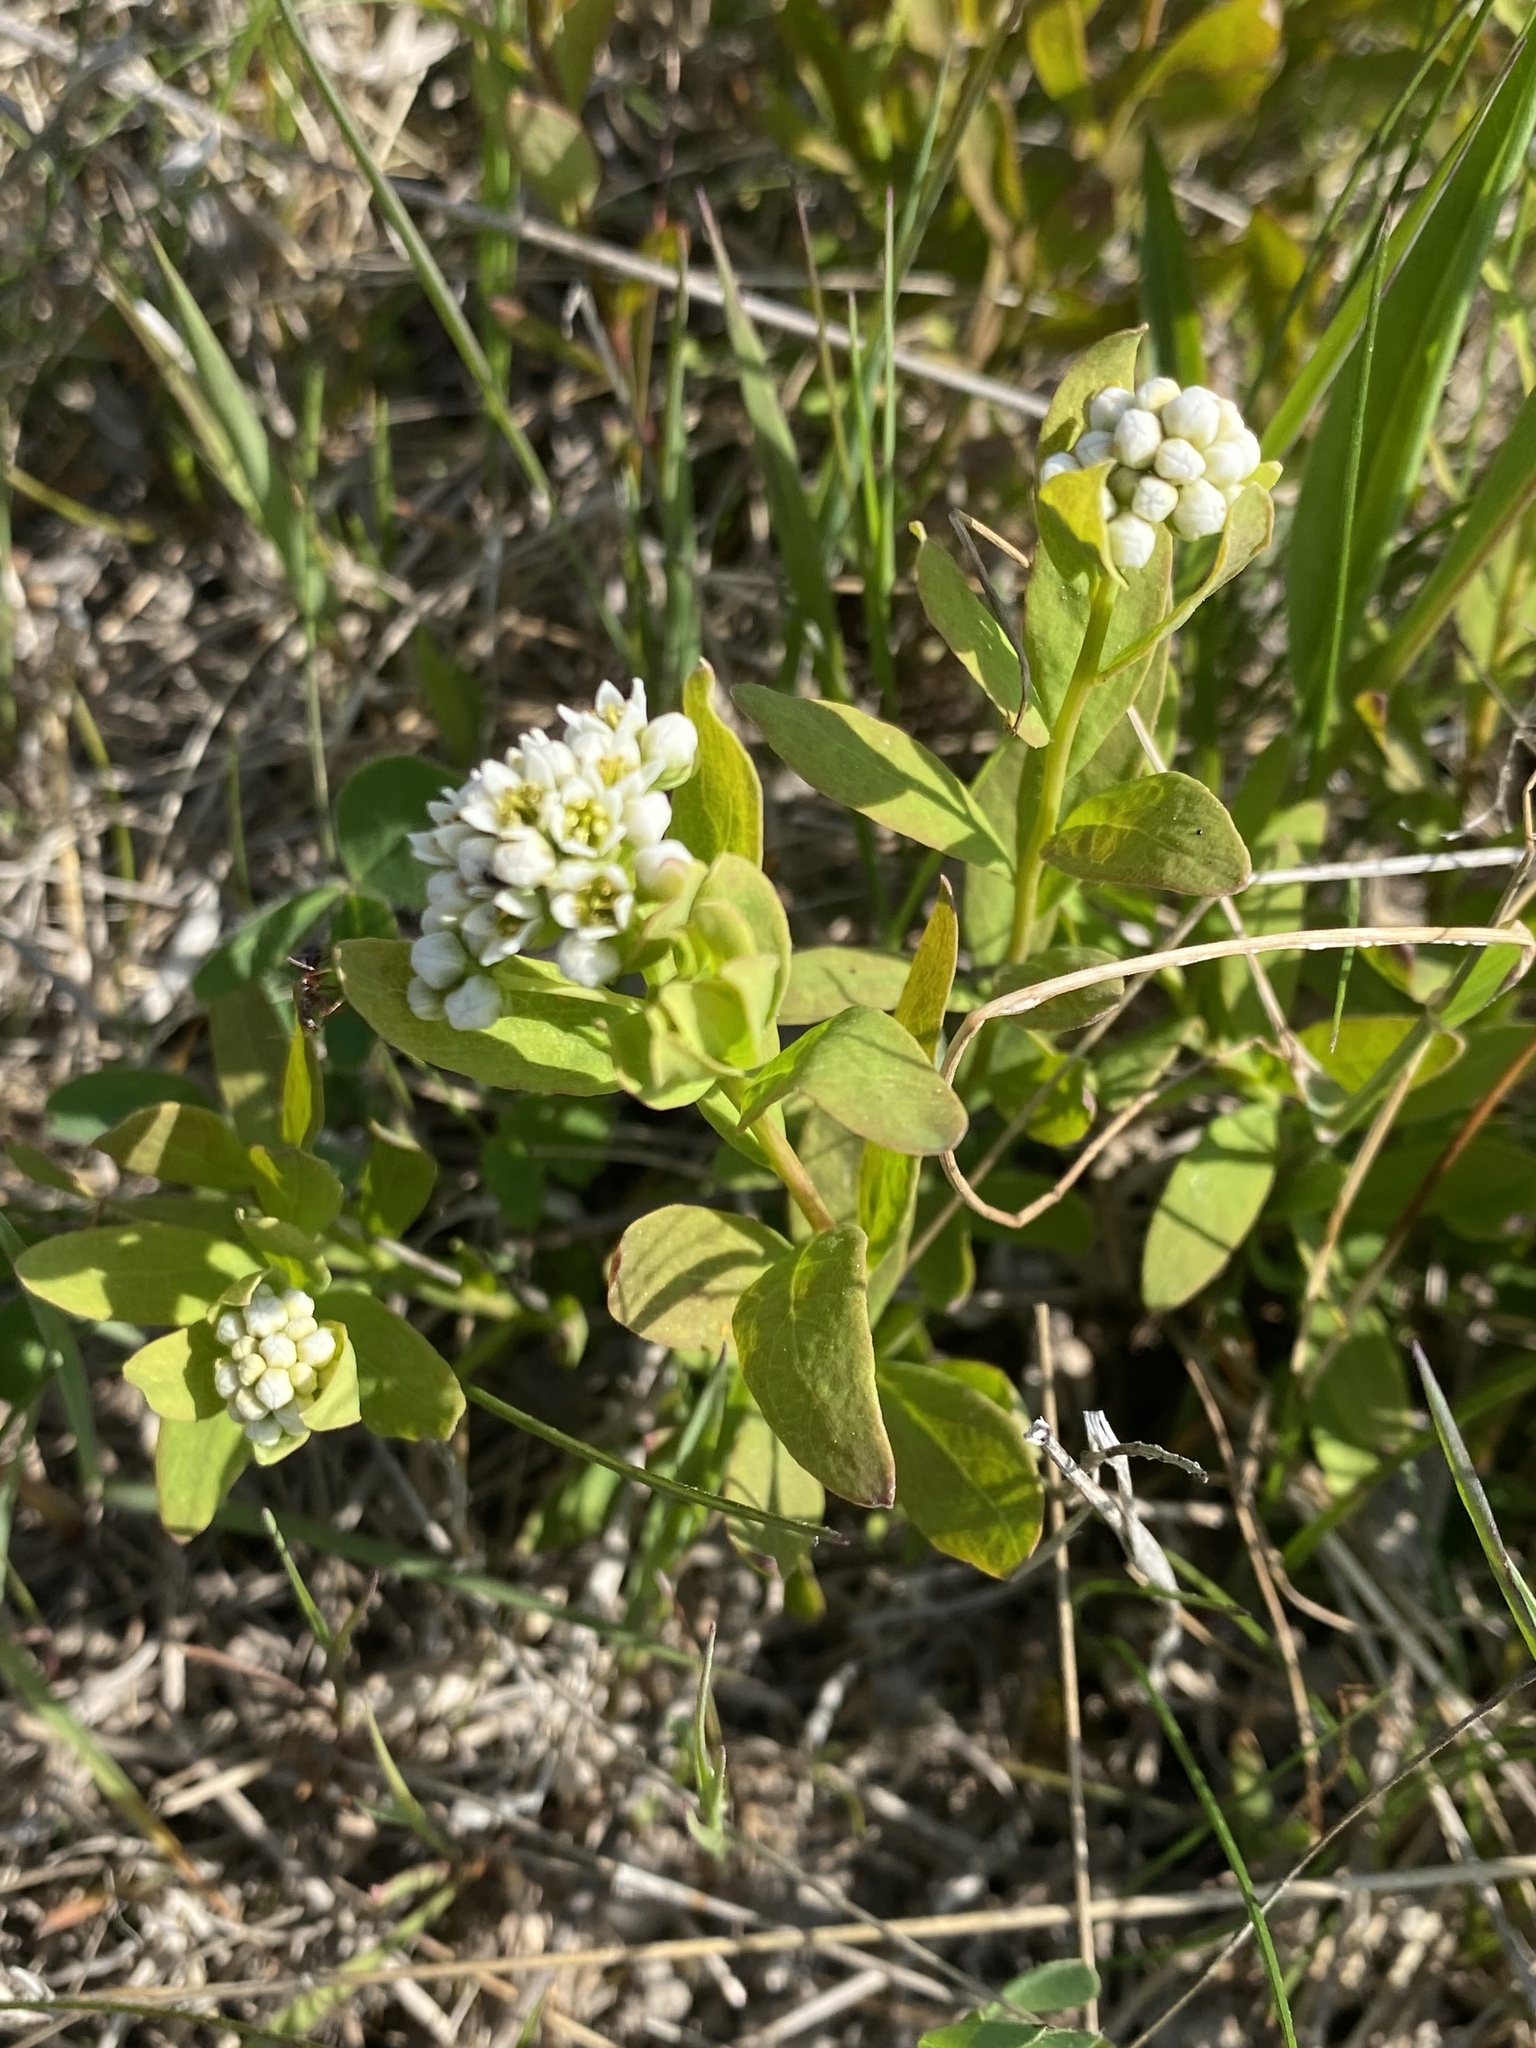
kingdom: Plantae
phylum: Tracheophyta
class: Magnoliopsida
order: Santalales
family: Comandraceae
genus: Comandra
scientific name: Comandra umbellata
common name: Bastard toadflax
